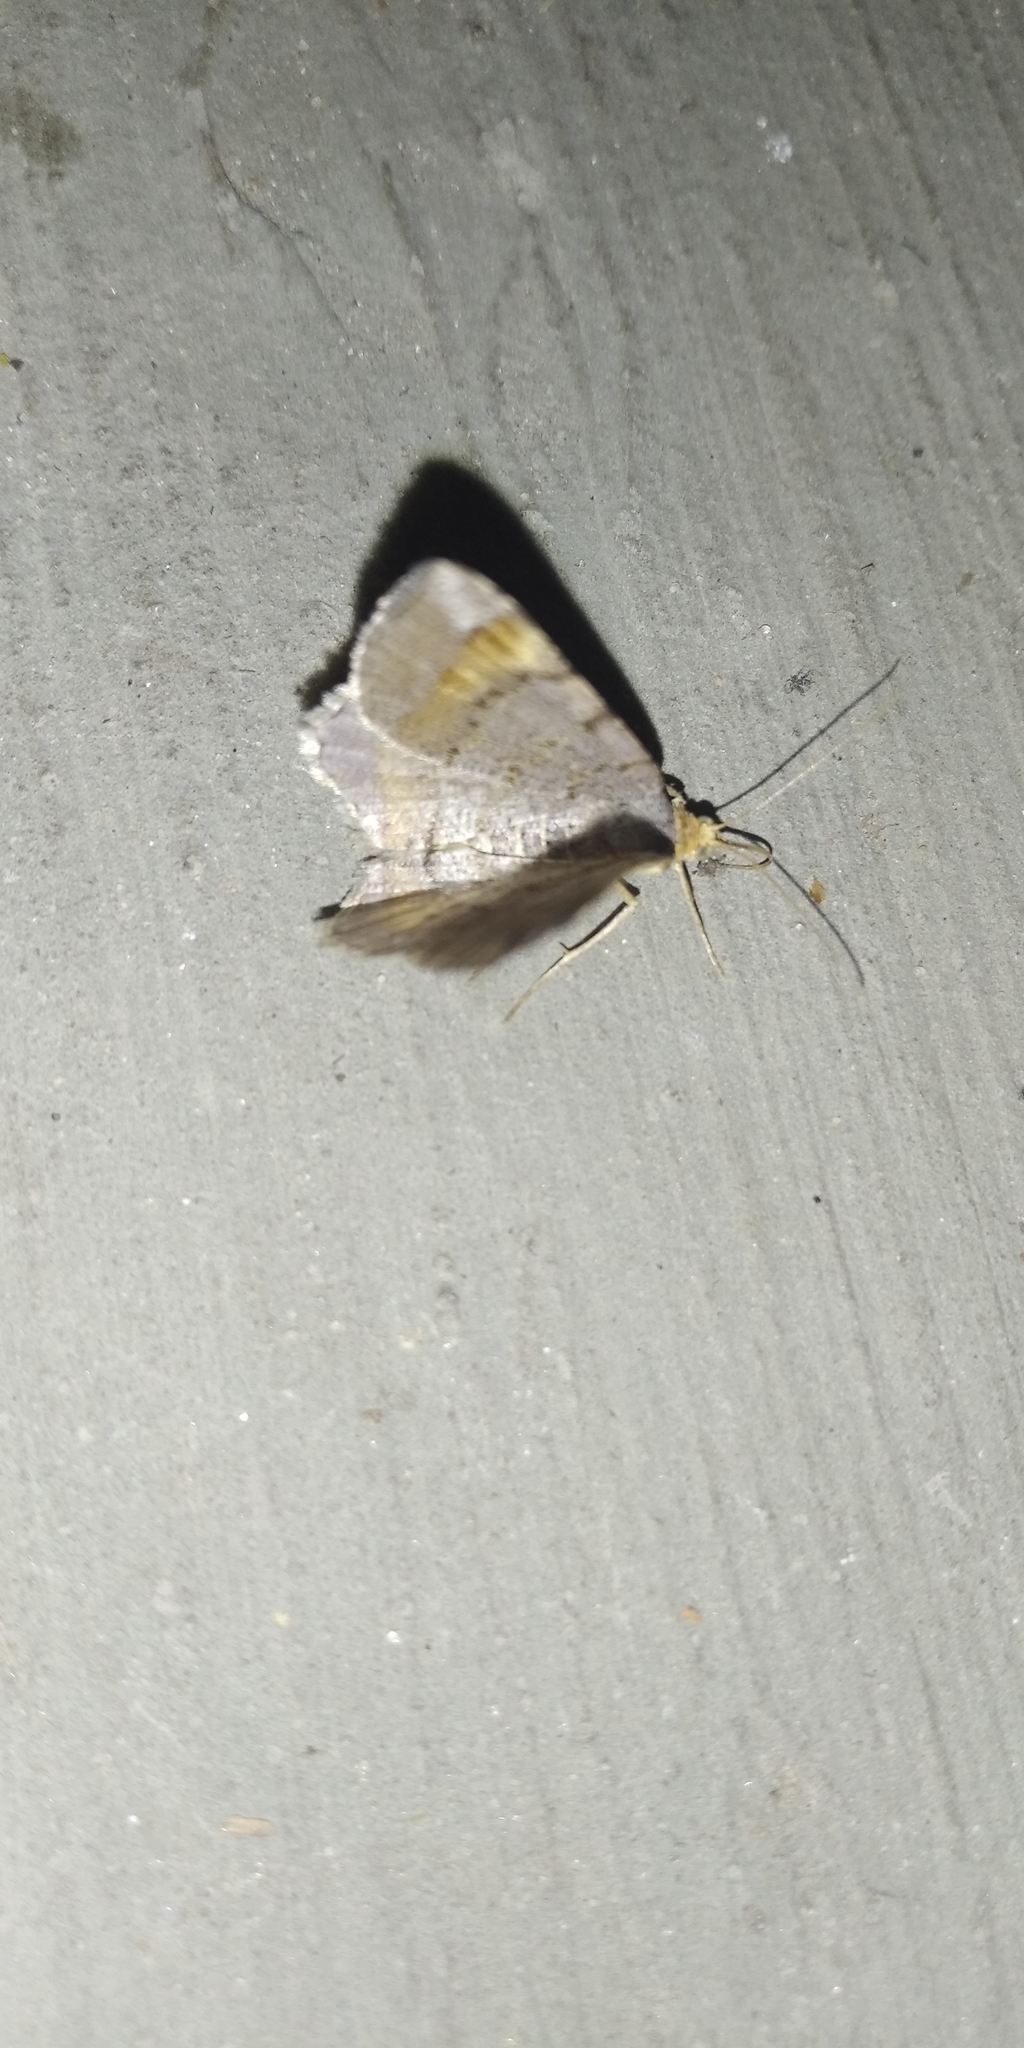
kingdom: Animalia
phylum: Arthropoda
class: Insecta
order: Lepidoptera
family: Geometridae
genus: Macaria
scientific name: Macaria liturata
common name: Tawny-barred angle
